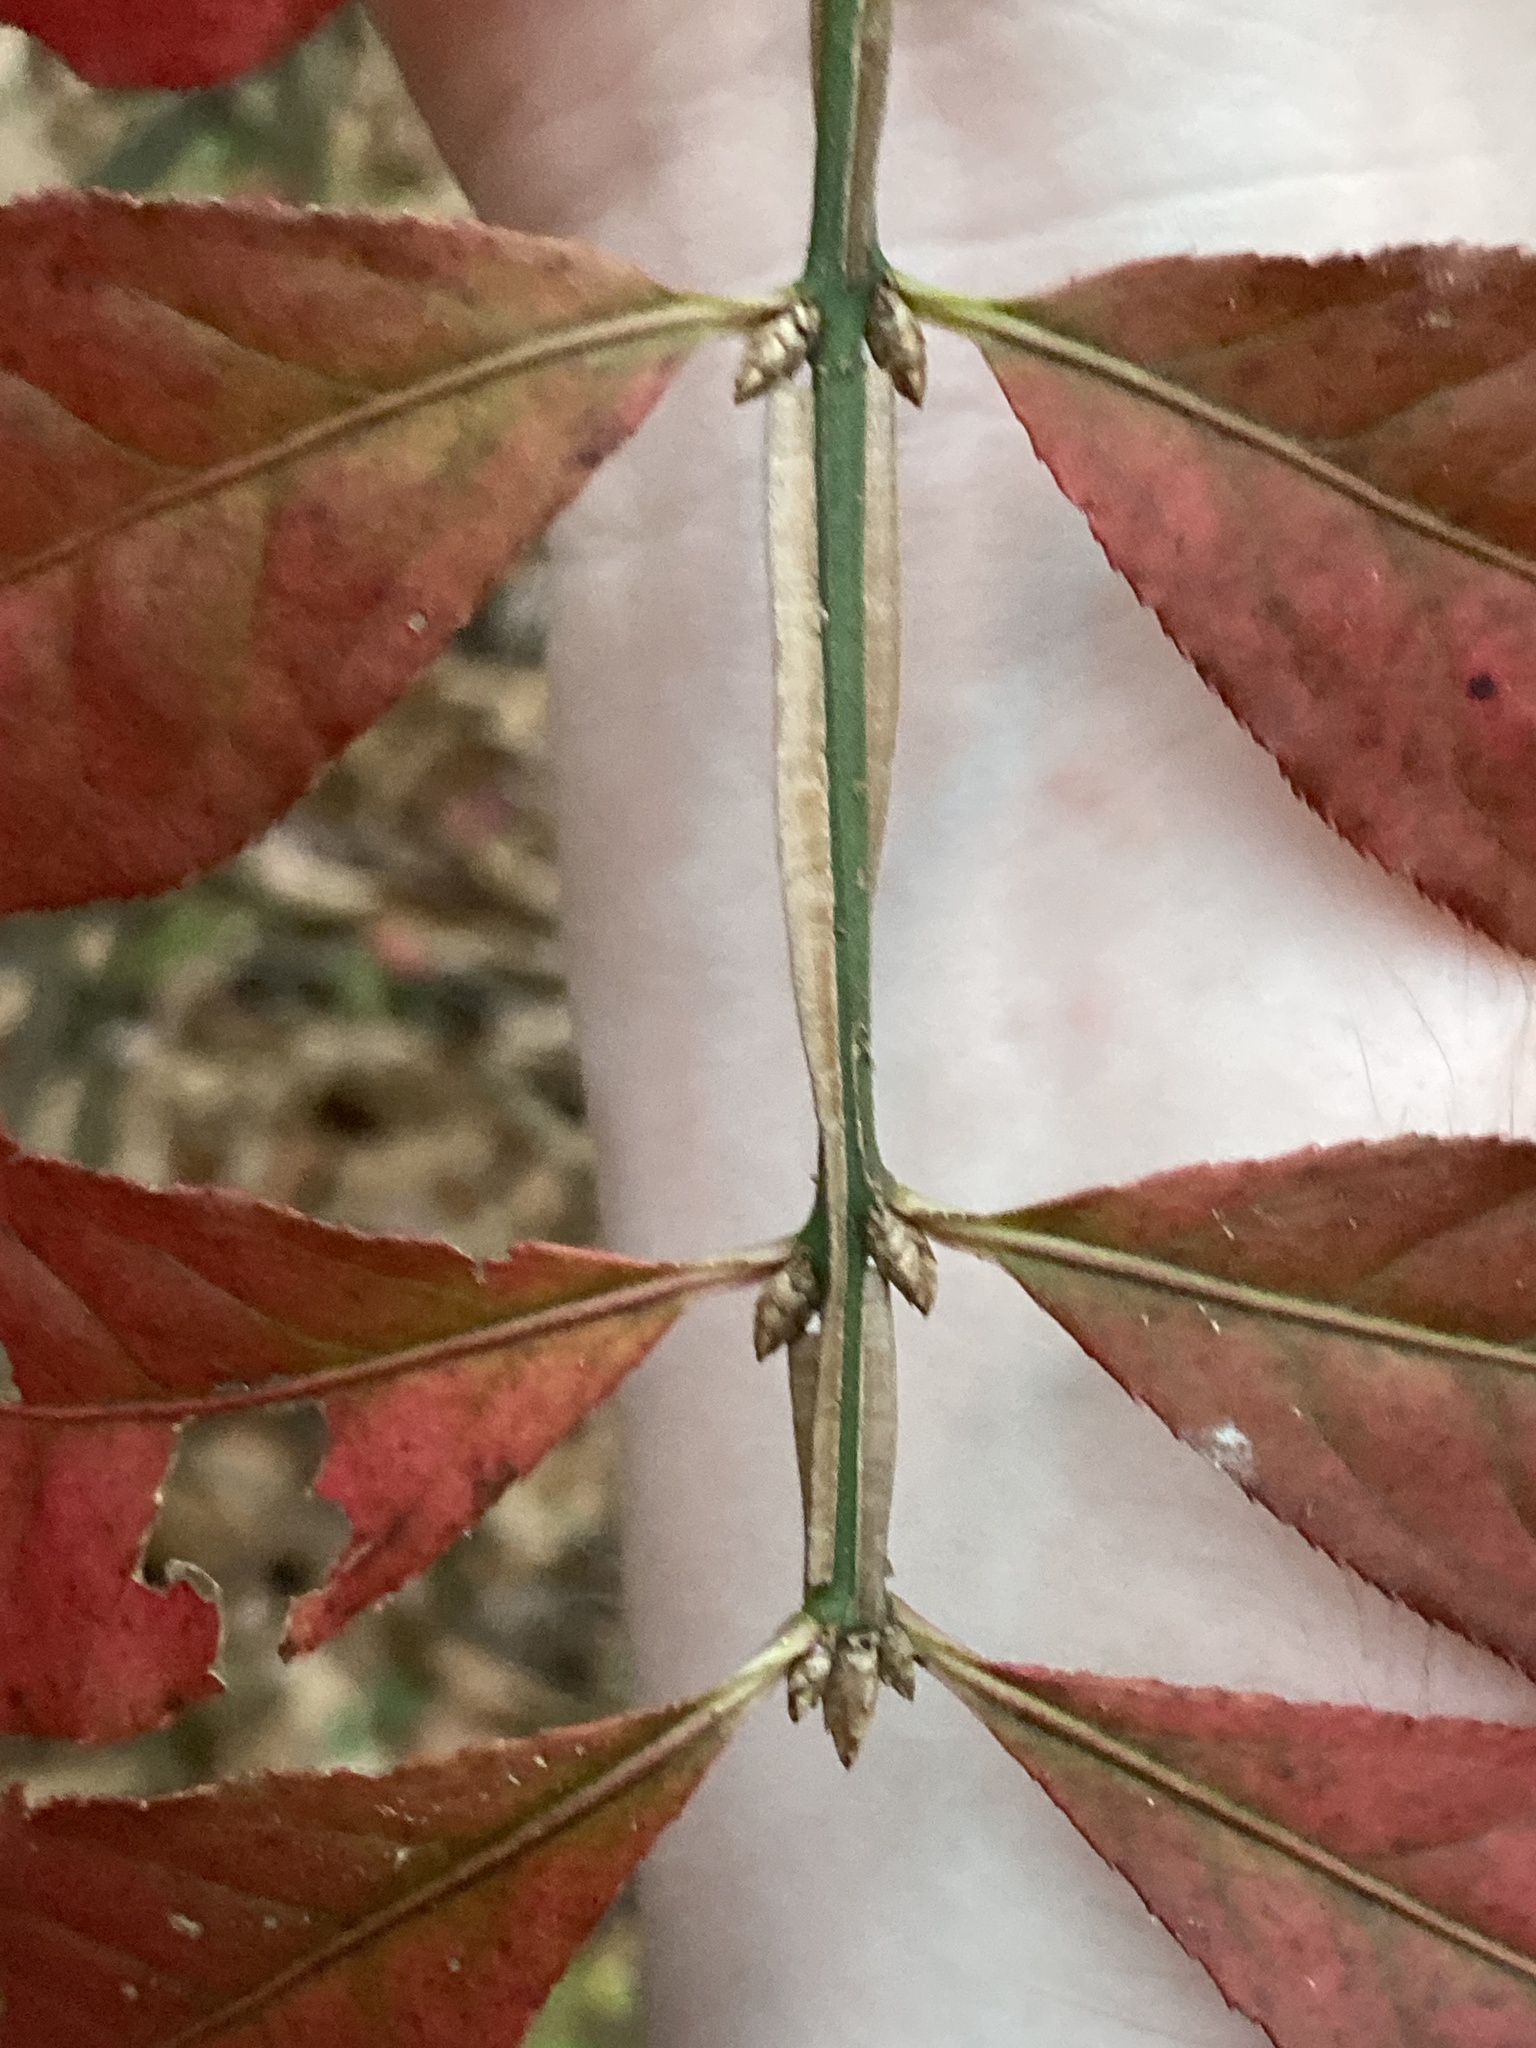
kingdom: Plantae
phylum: Tracheophyta
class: Magnoliopsida
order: Celastrales
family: Celastraceae
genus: Euonymus
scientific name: Euonymus alatus
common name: Winged euonymus
